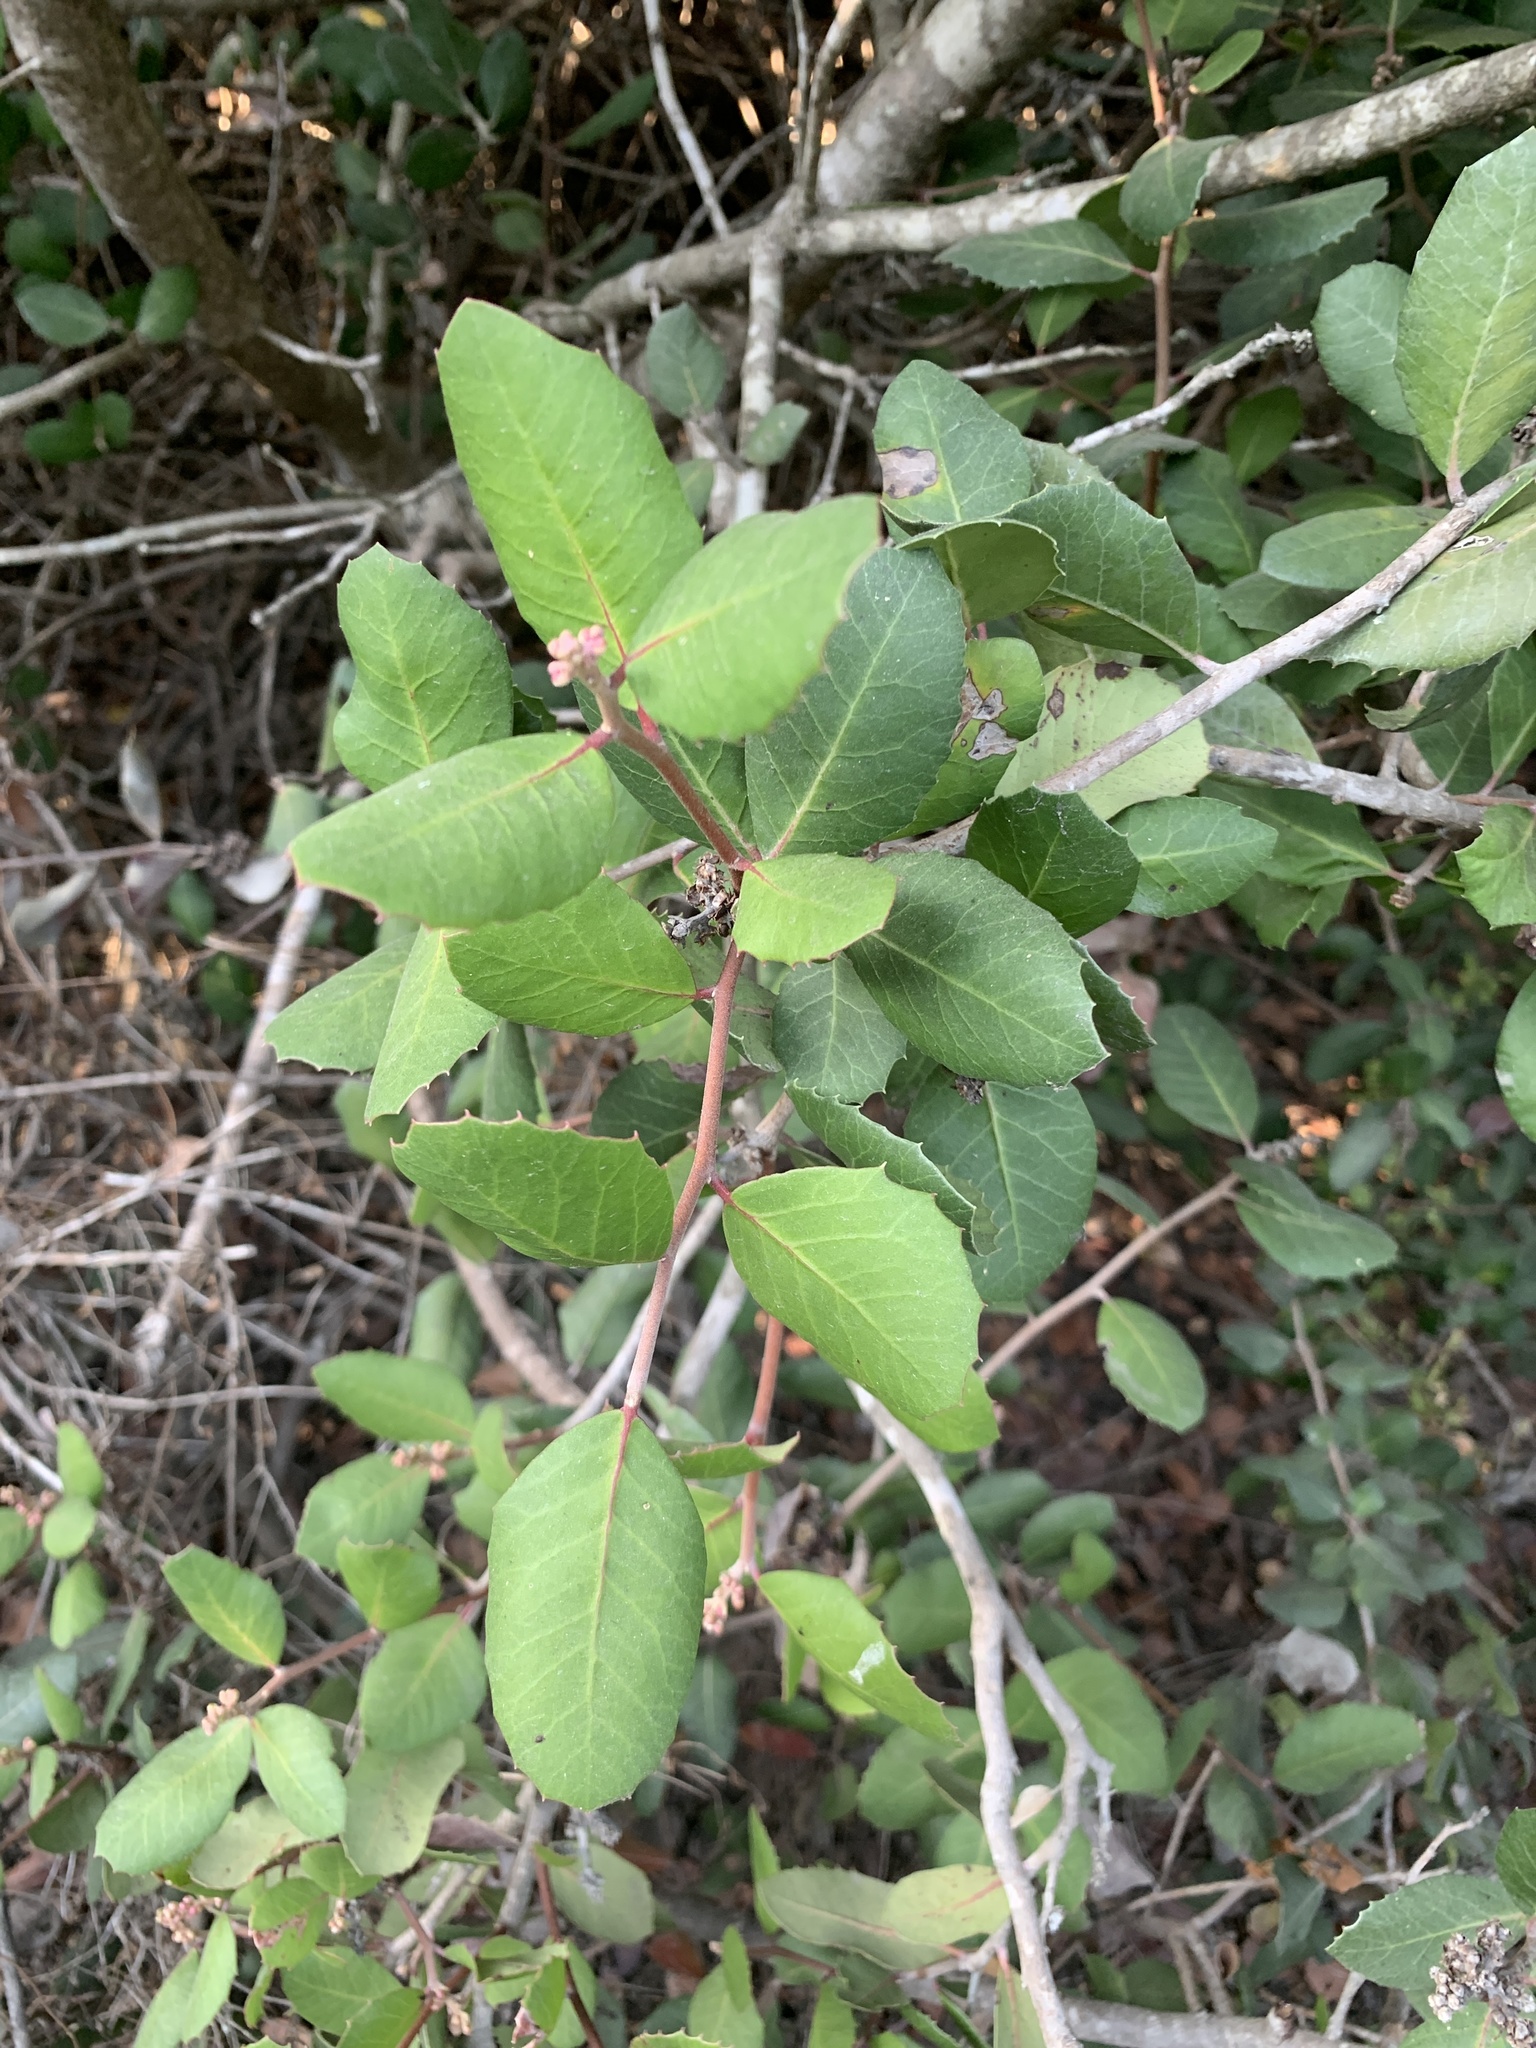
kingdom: Plantae
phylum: Tracheophyta
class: Magnoliopsida
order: Sapindales
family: Anacardiaceae
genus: Rhus
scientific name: Rhus integrifolia
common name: Lemonade sumac
